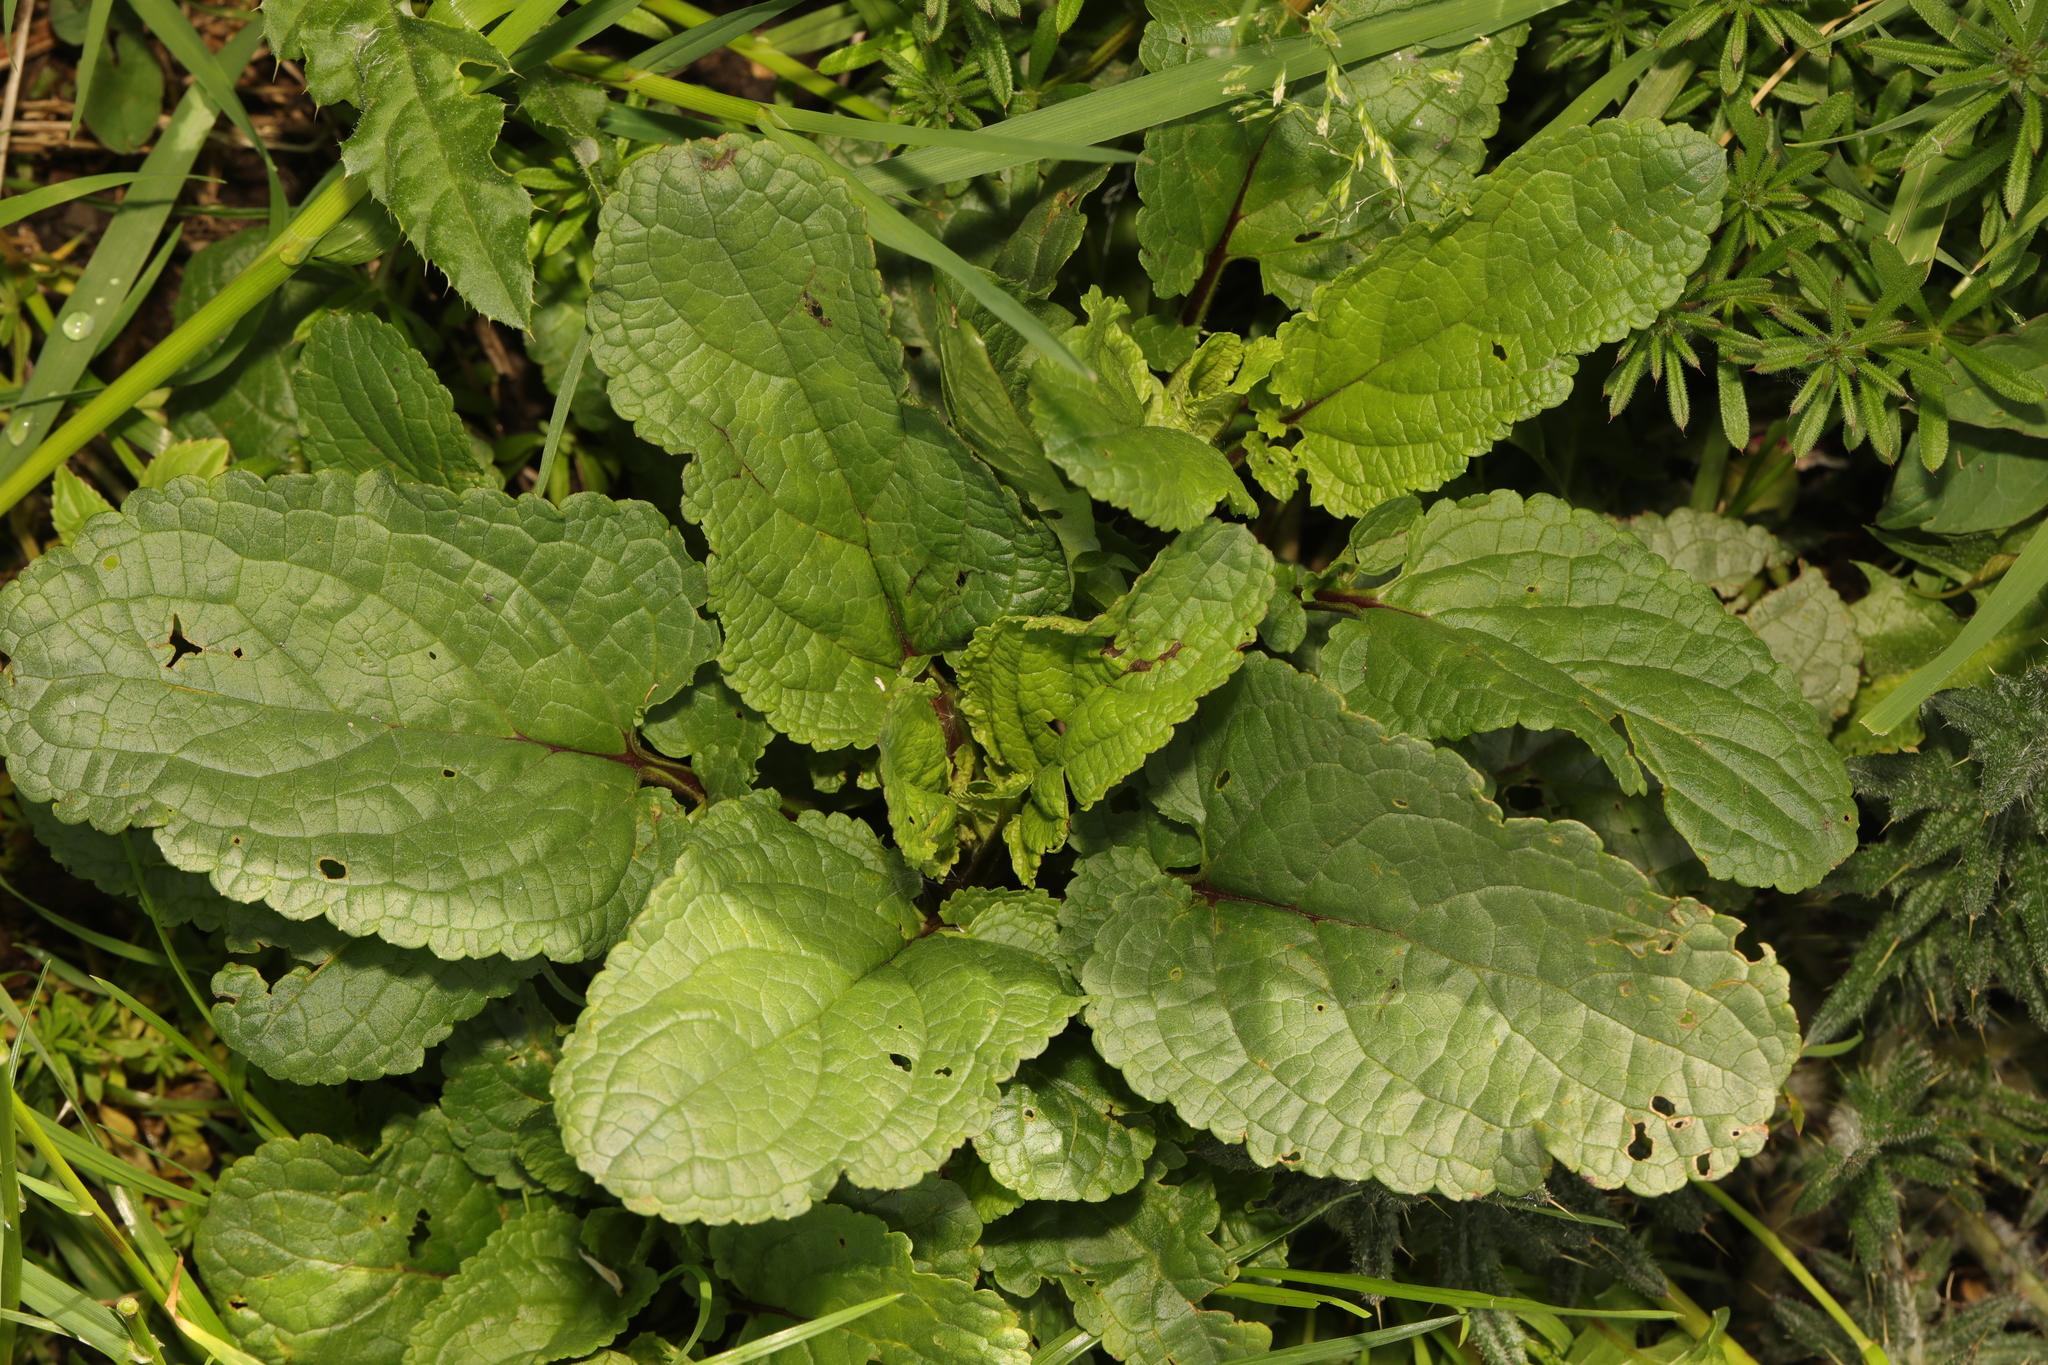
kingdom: Plantae
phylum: Tracheophyta
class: Magnoliopsida
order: Lamiales
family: Scrophulariaceae
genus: Scrophularia
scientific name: Scrophularia auriculata
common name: Water betony
